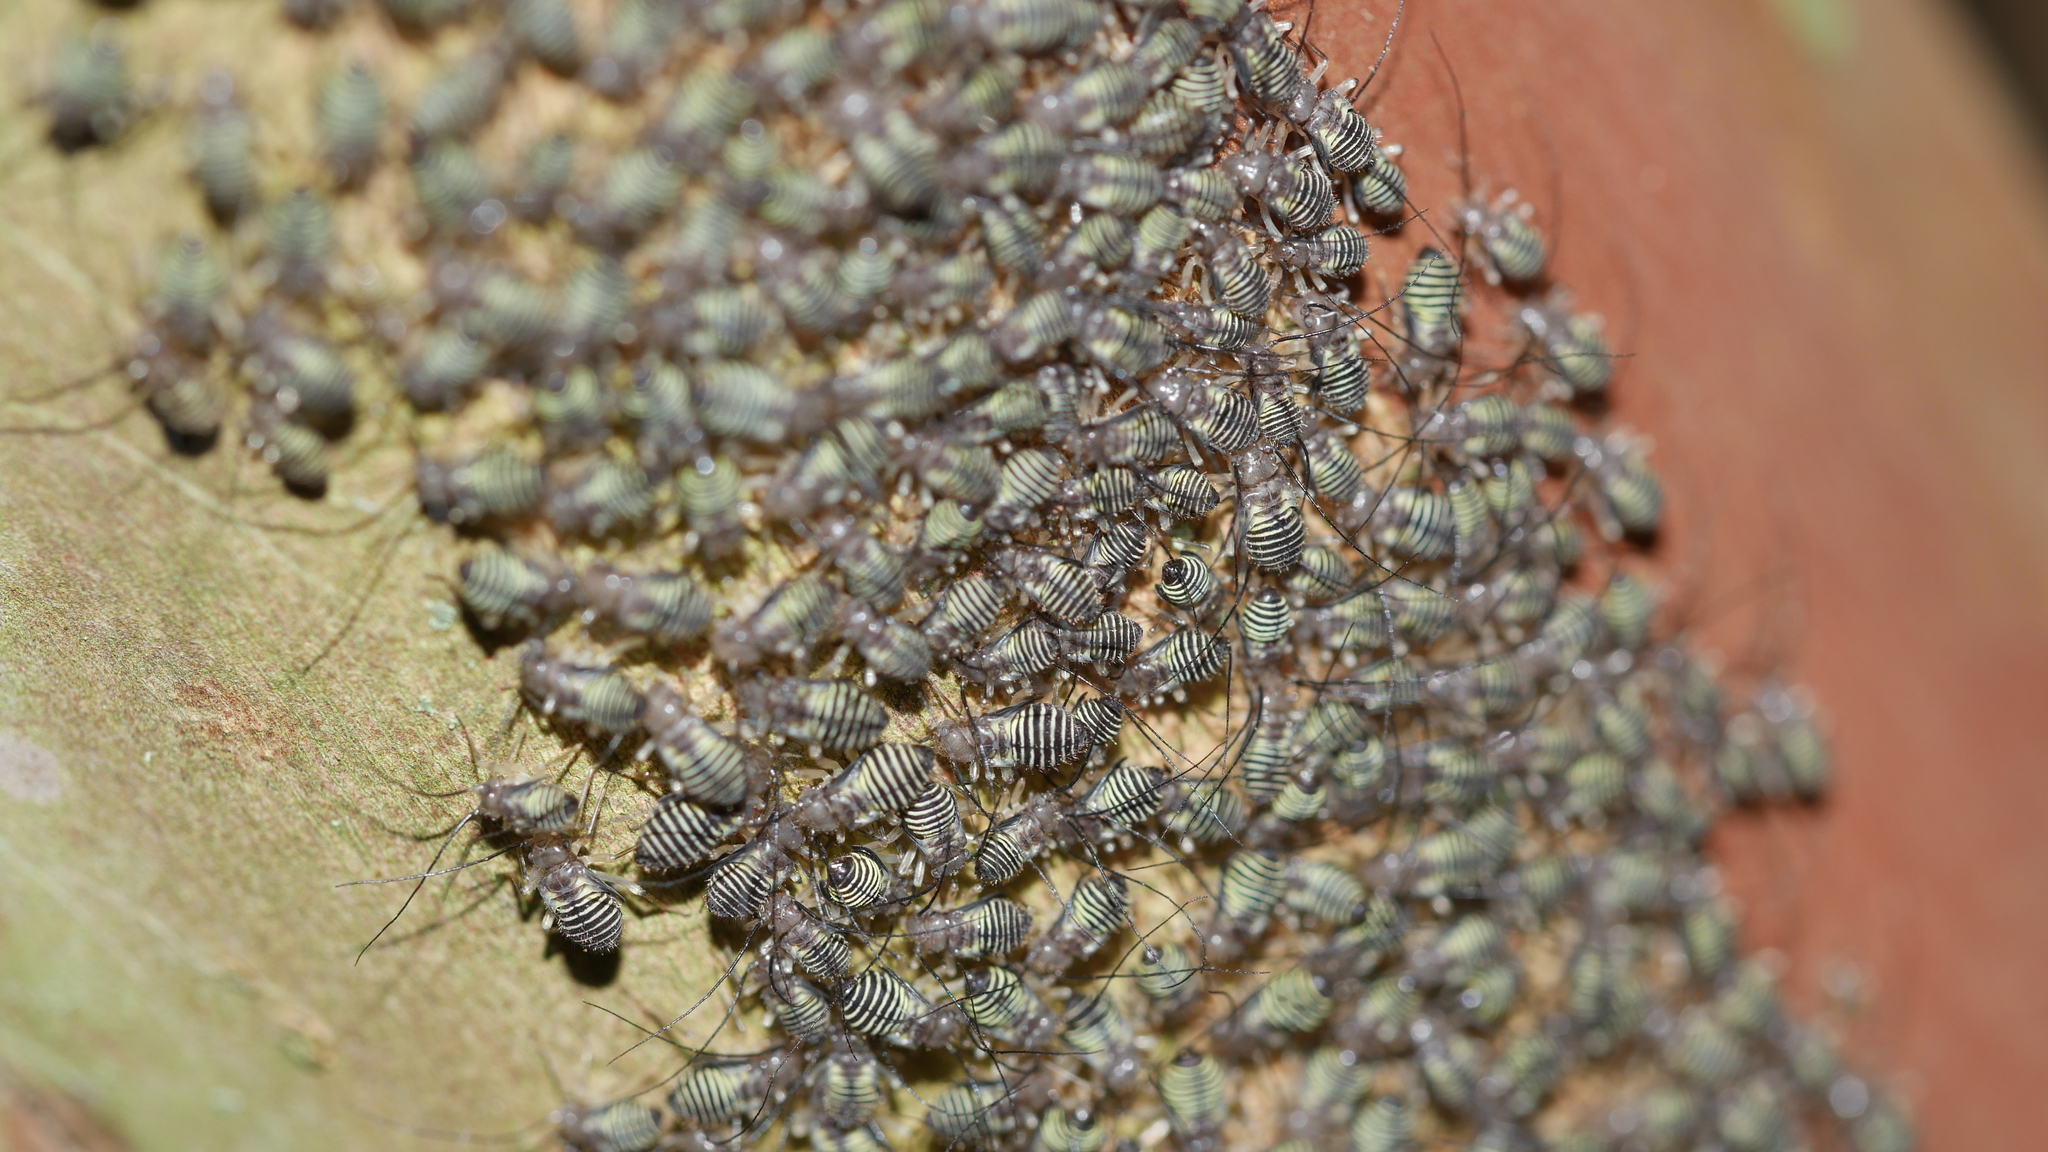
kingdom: Animalia
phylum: Arthropoda
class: Insecta
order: Psocodea
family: Psocidae
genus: Cerastipsocus
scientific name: Cerastipsocus venosus
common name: Tree cattle
